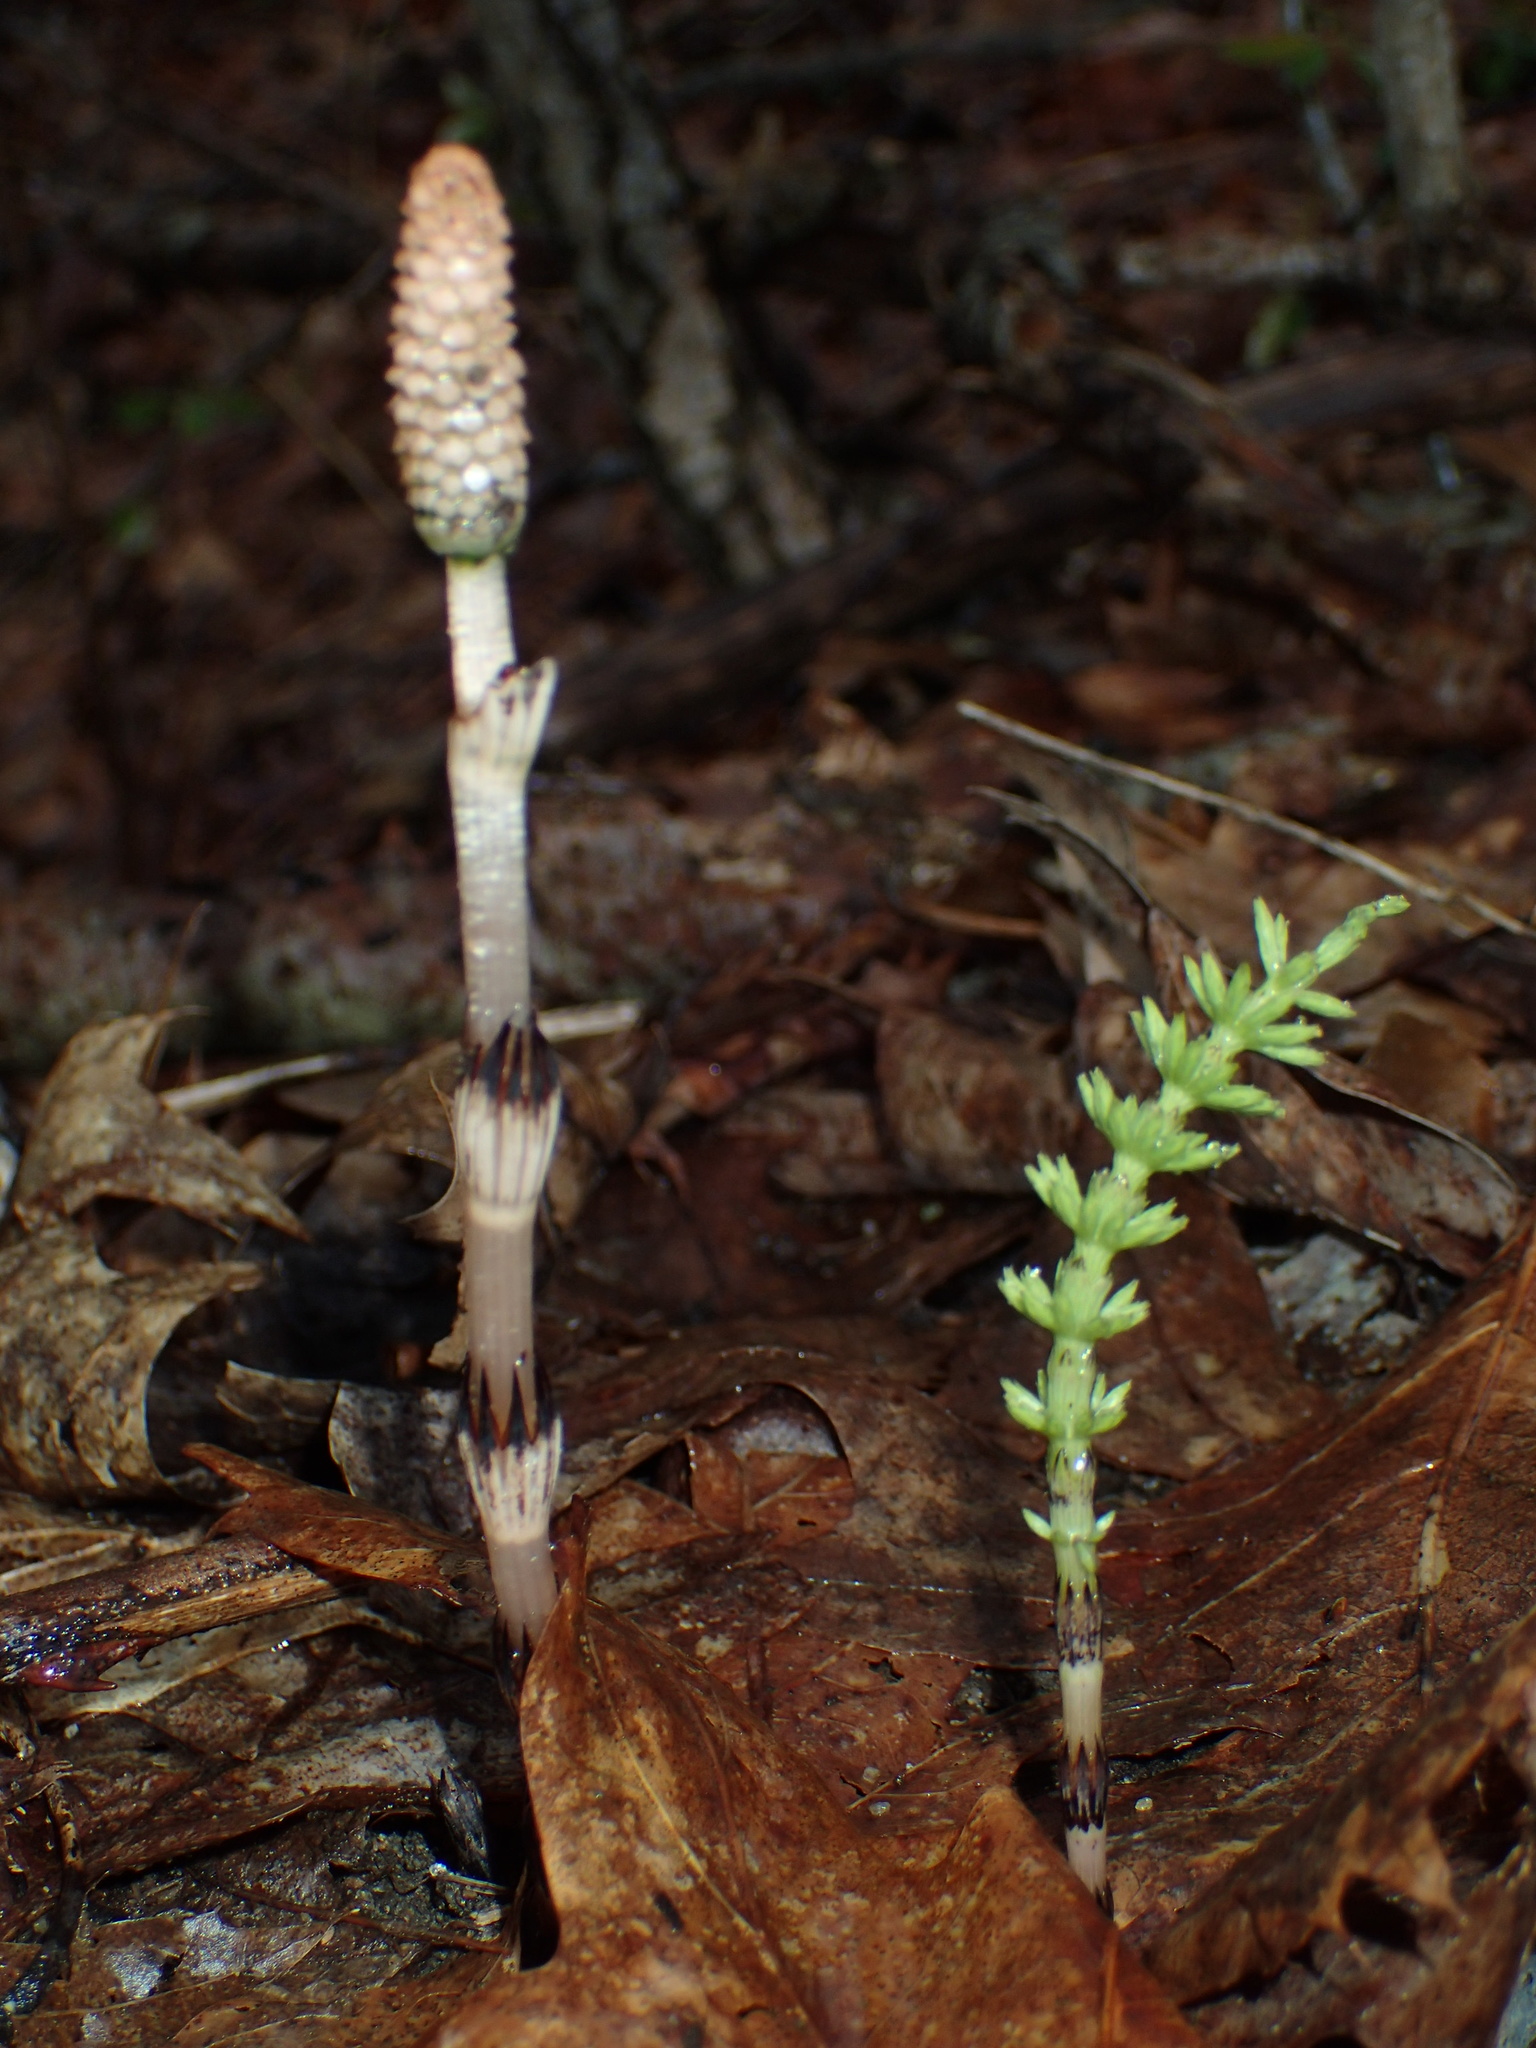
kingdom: Plantae
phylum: Tracheophyta
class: Polypodiopsida
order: Equisetales
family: Equisetaceae
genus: Equisetum
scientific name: Equisetum arvense
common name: Field horsetail
